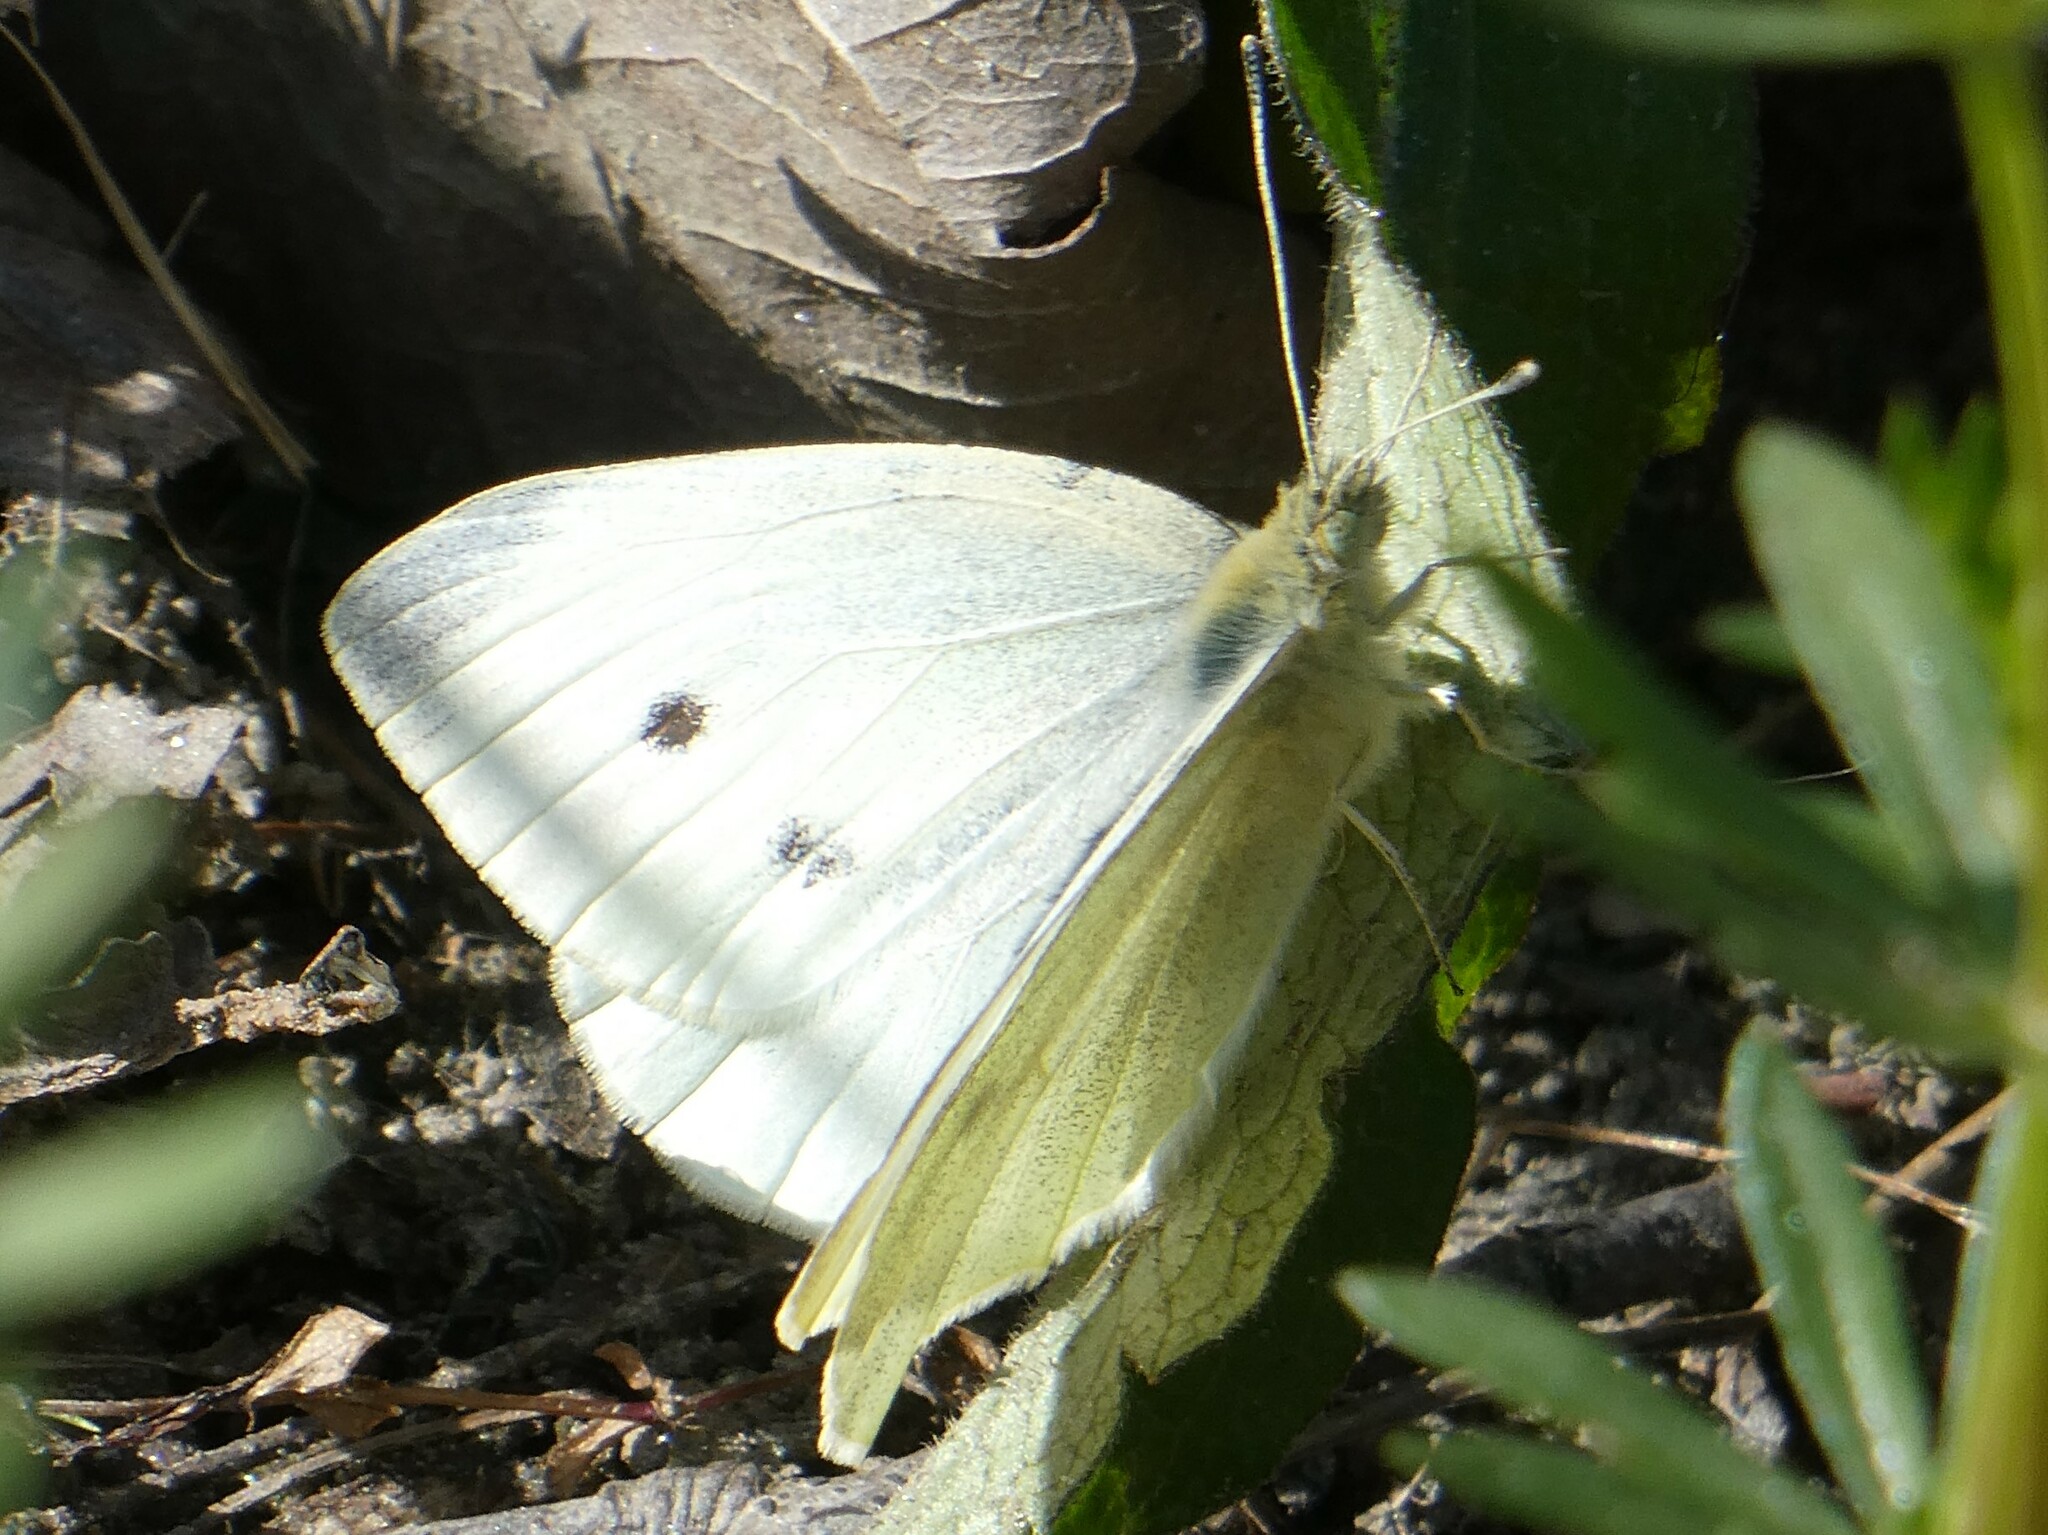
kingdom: Animalia
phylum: Arthropoda
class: Insecta
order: Lepidoptera
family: Pieridae
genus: Pieris
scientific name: Pieris rapae
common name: Small white
